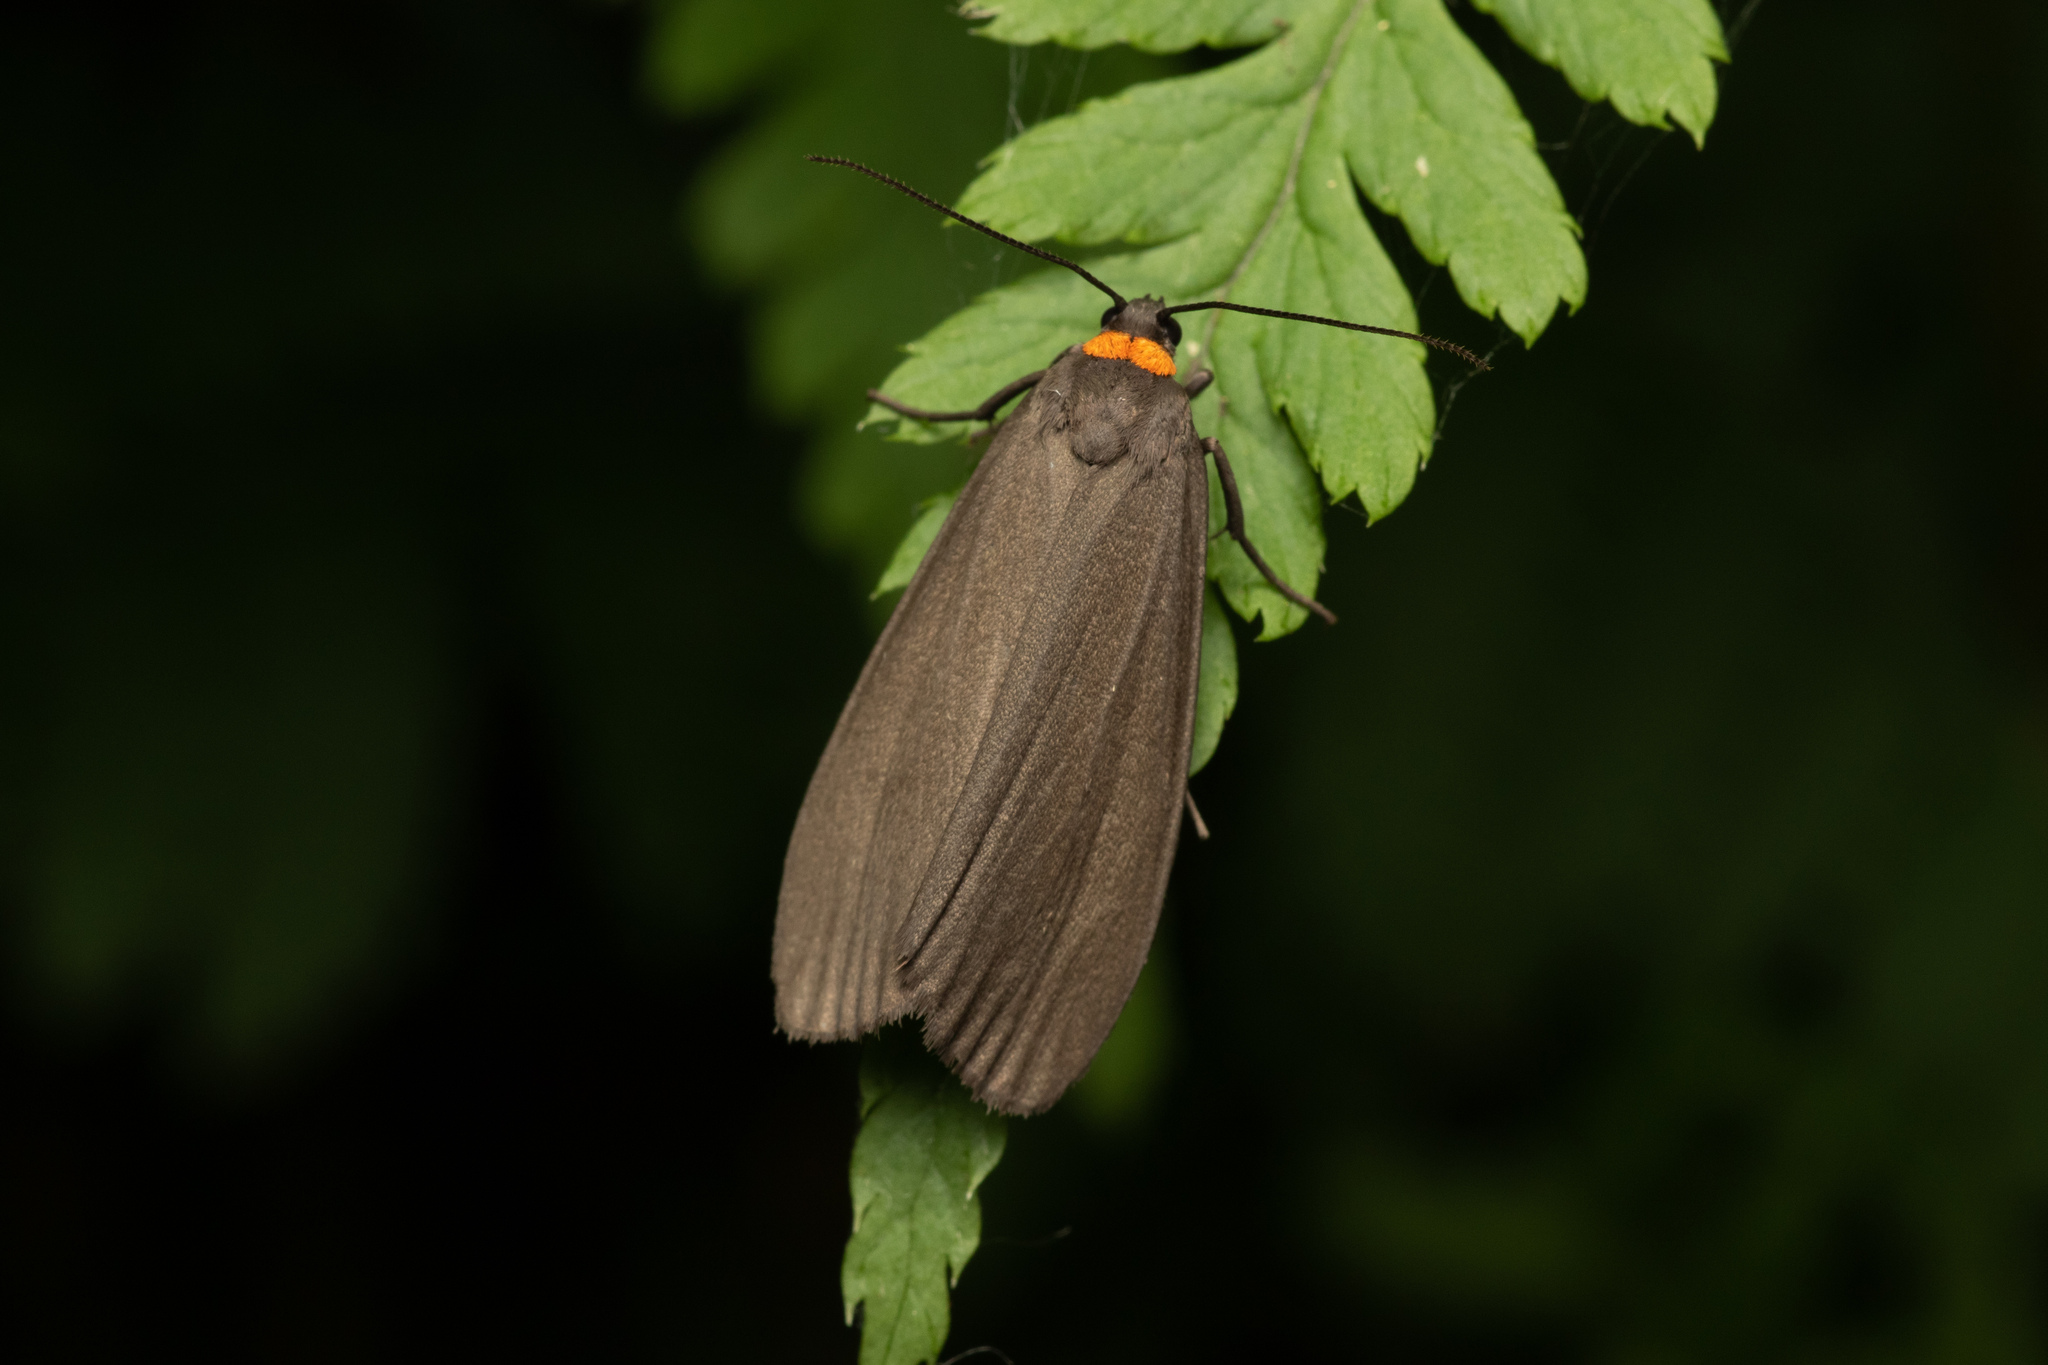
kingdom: Animalia
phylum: Arthropoda
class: Insecta
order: Lepidoptera
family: Erebidae
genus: Atolmis
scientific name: Atolmis rubricollis
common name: Red-necked footman
